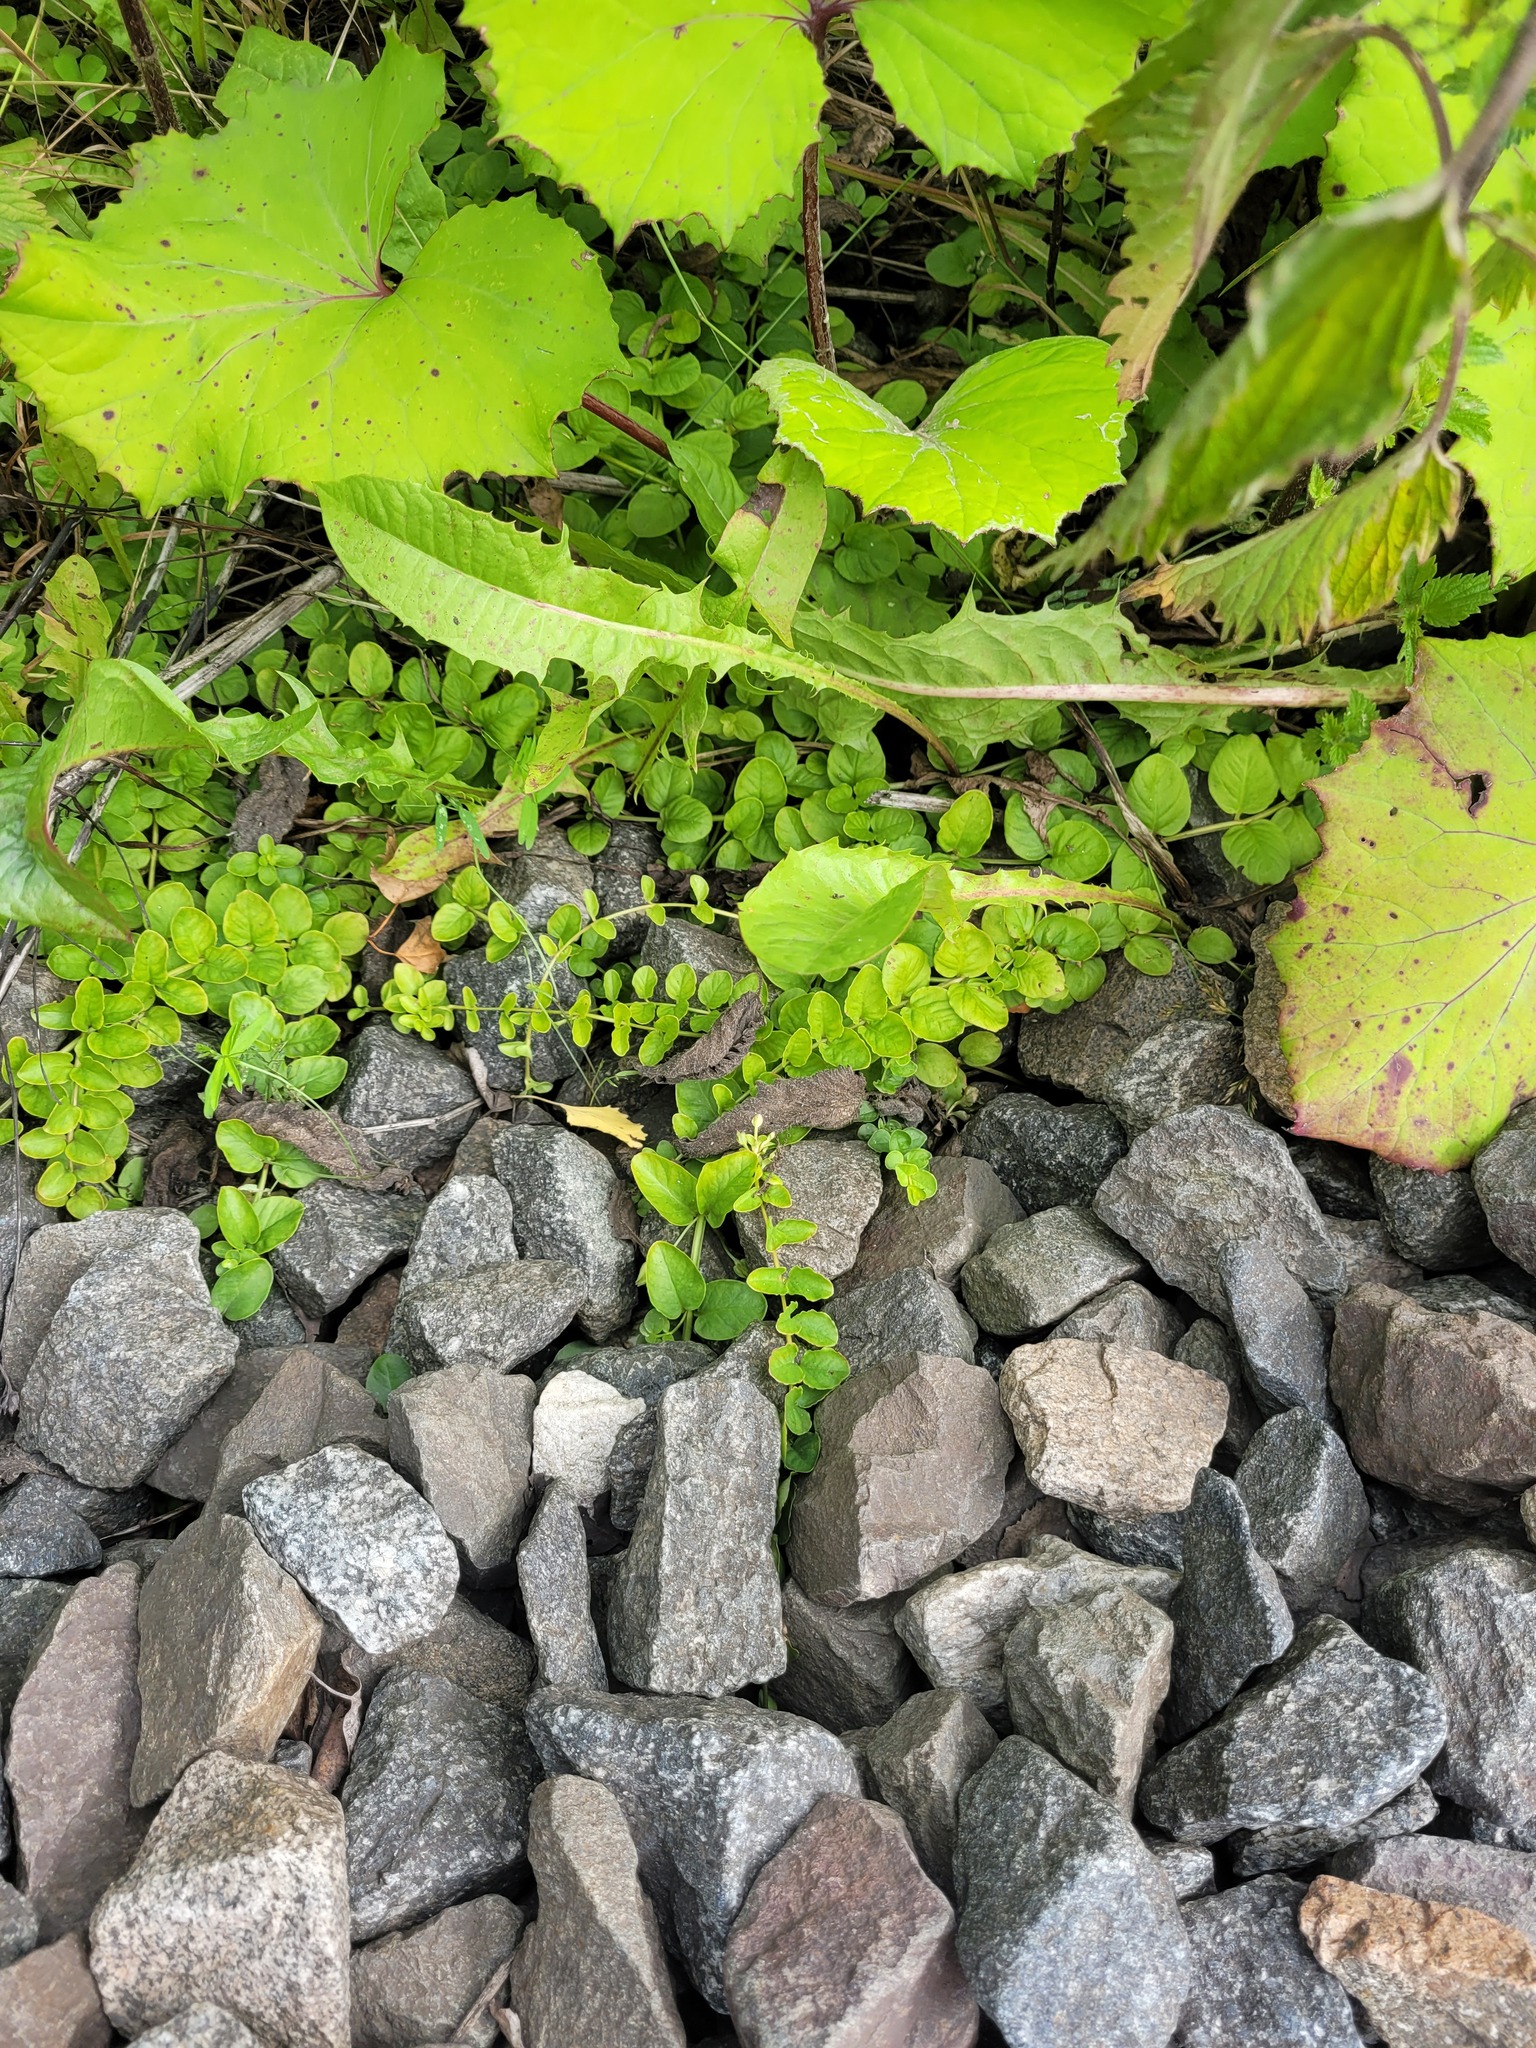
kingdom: Plantae
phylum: Tracheophyta
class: Magnoliopsida
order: Ericales
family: Primulaceae
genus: Lysimachia
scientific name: Lysimachia nummularia
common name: Moneywort
